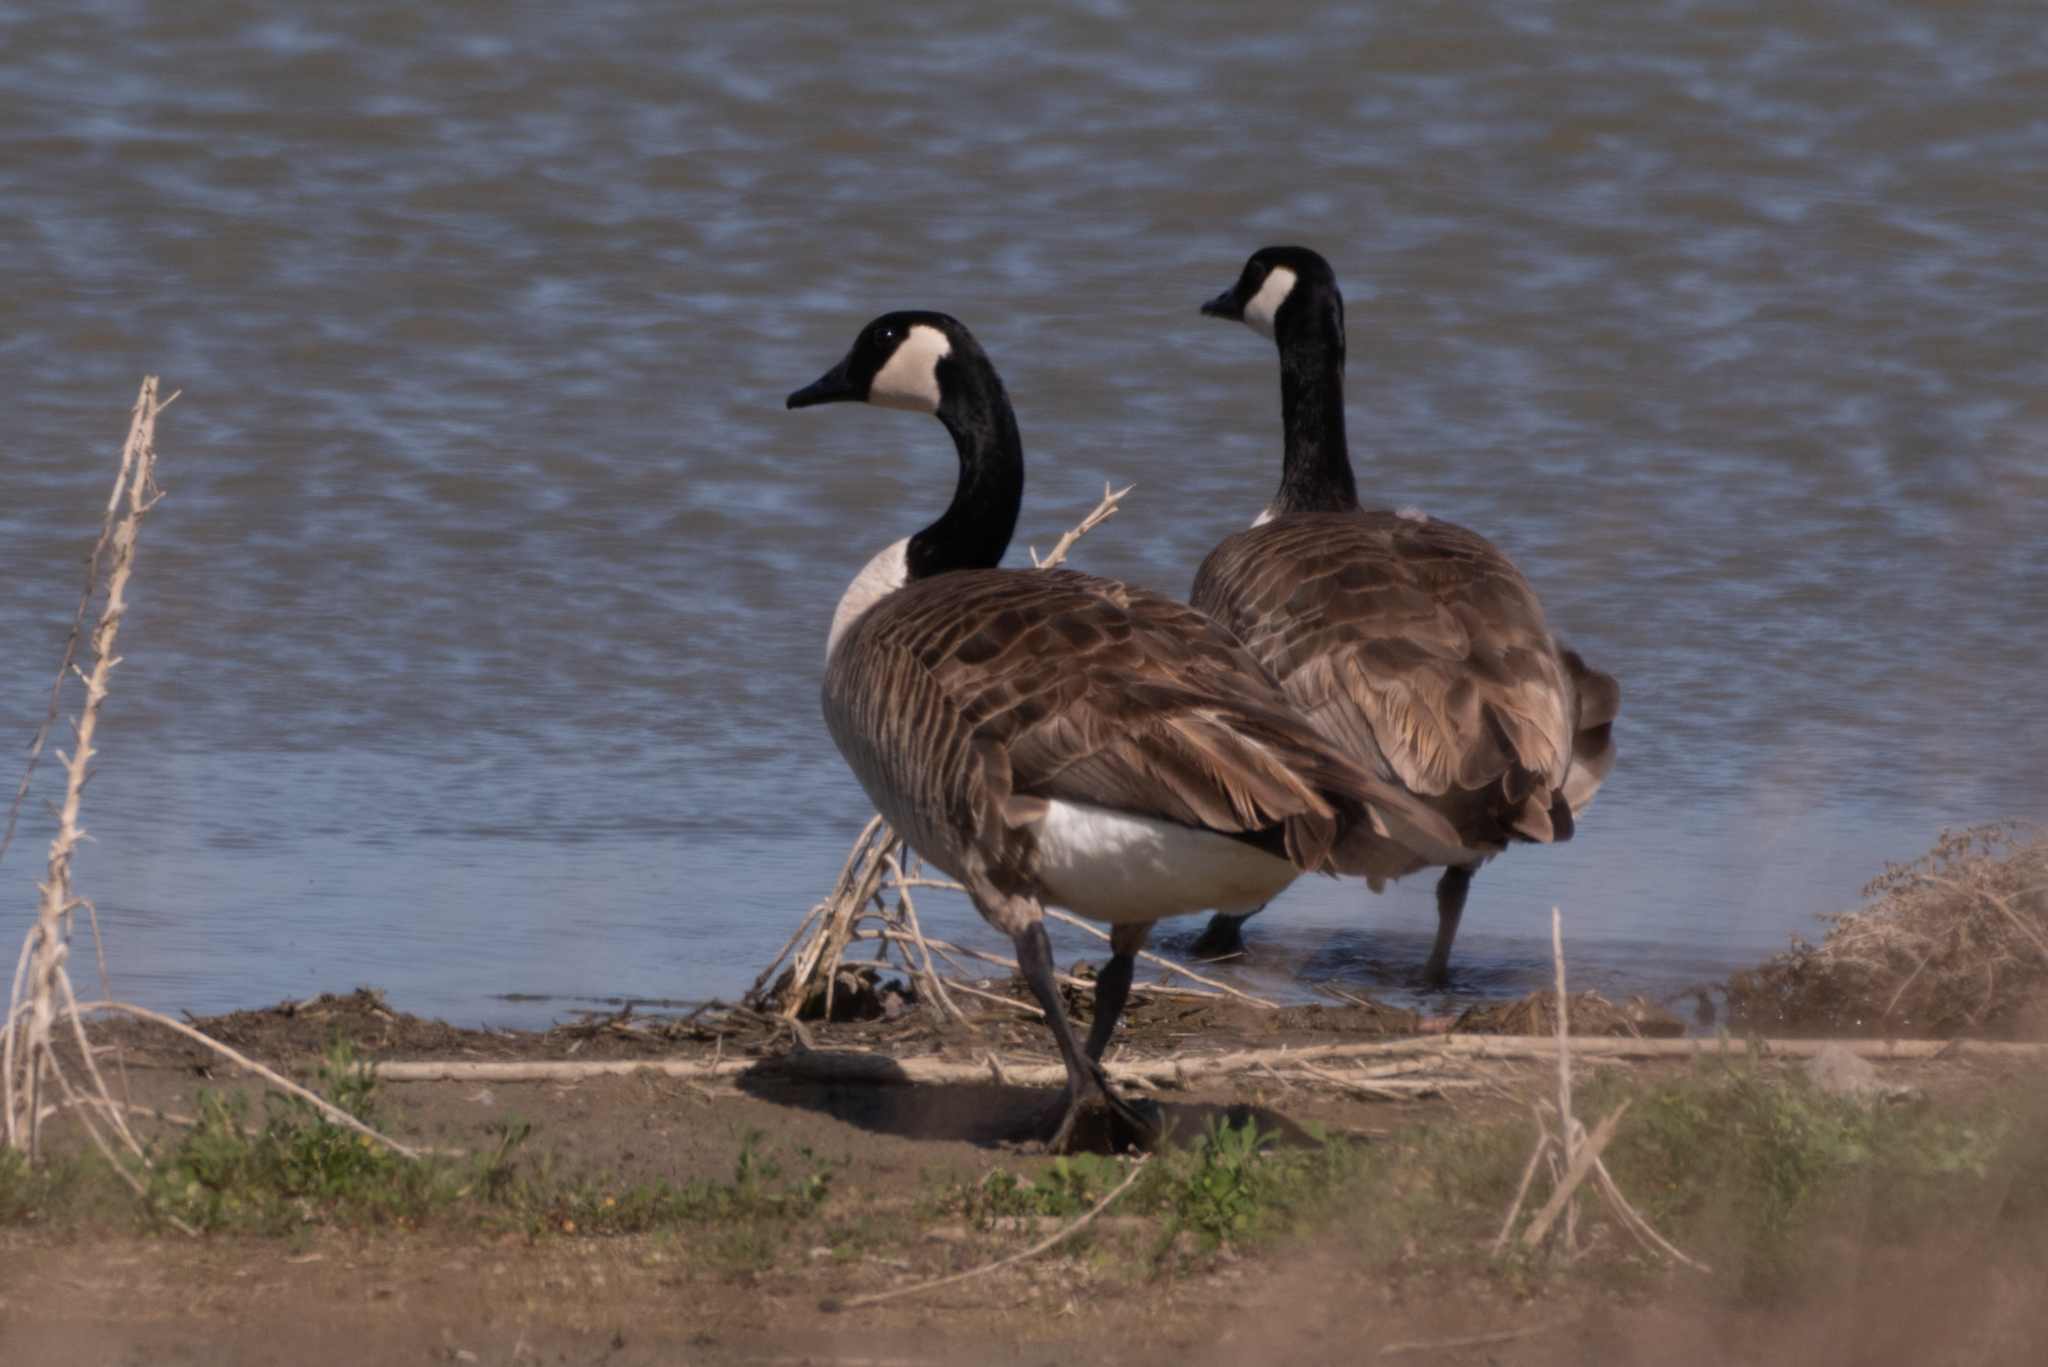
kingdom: Animalia
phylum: Chordata
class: Aves
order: Anseriformes
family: Anatidae
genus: Branta
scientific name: Branta canadensis
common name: Canada goose
